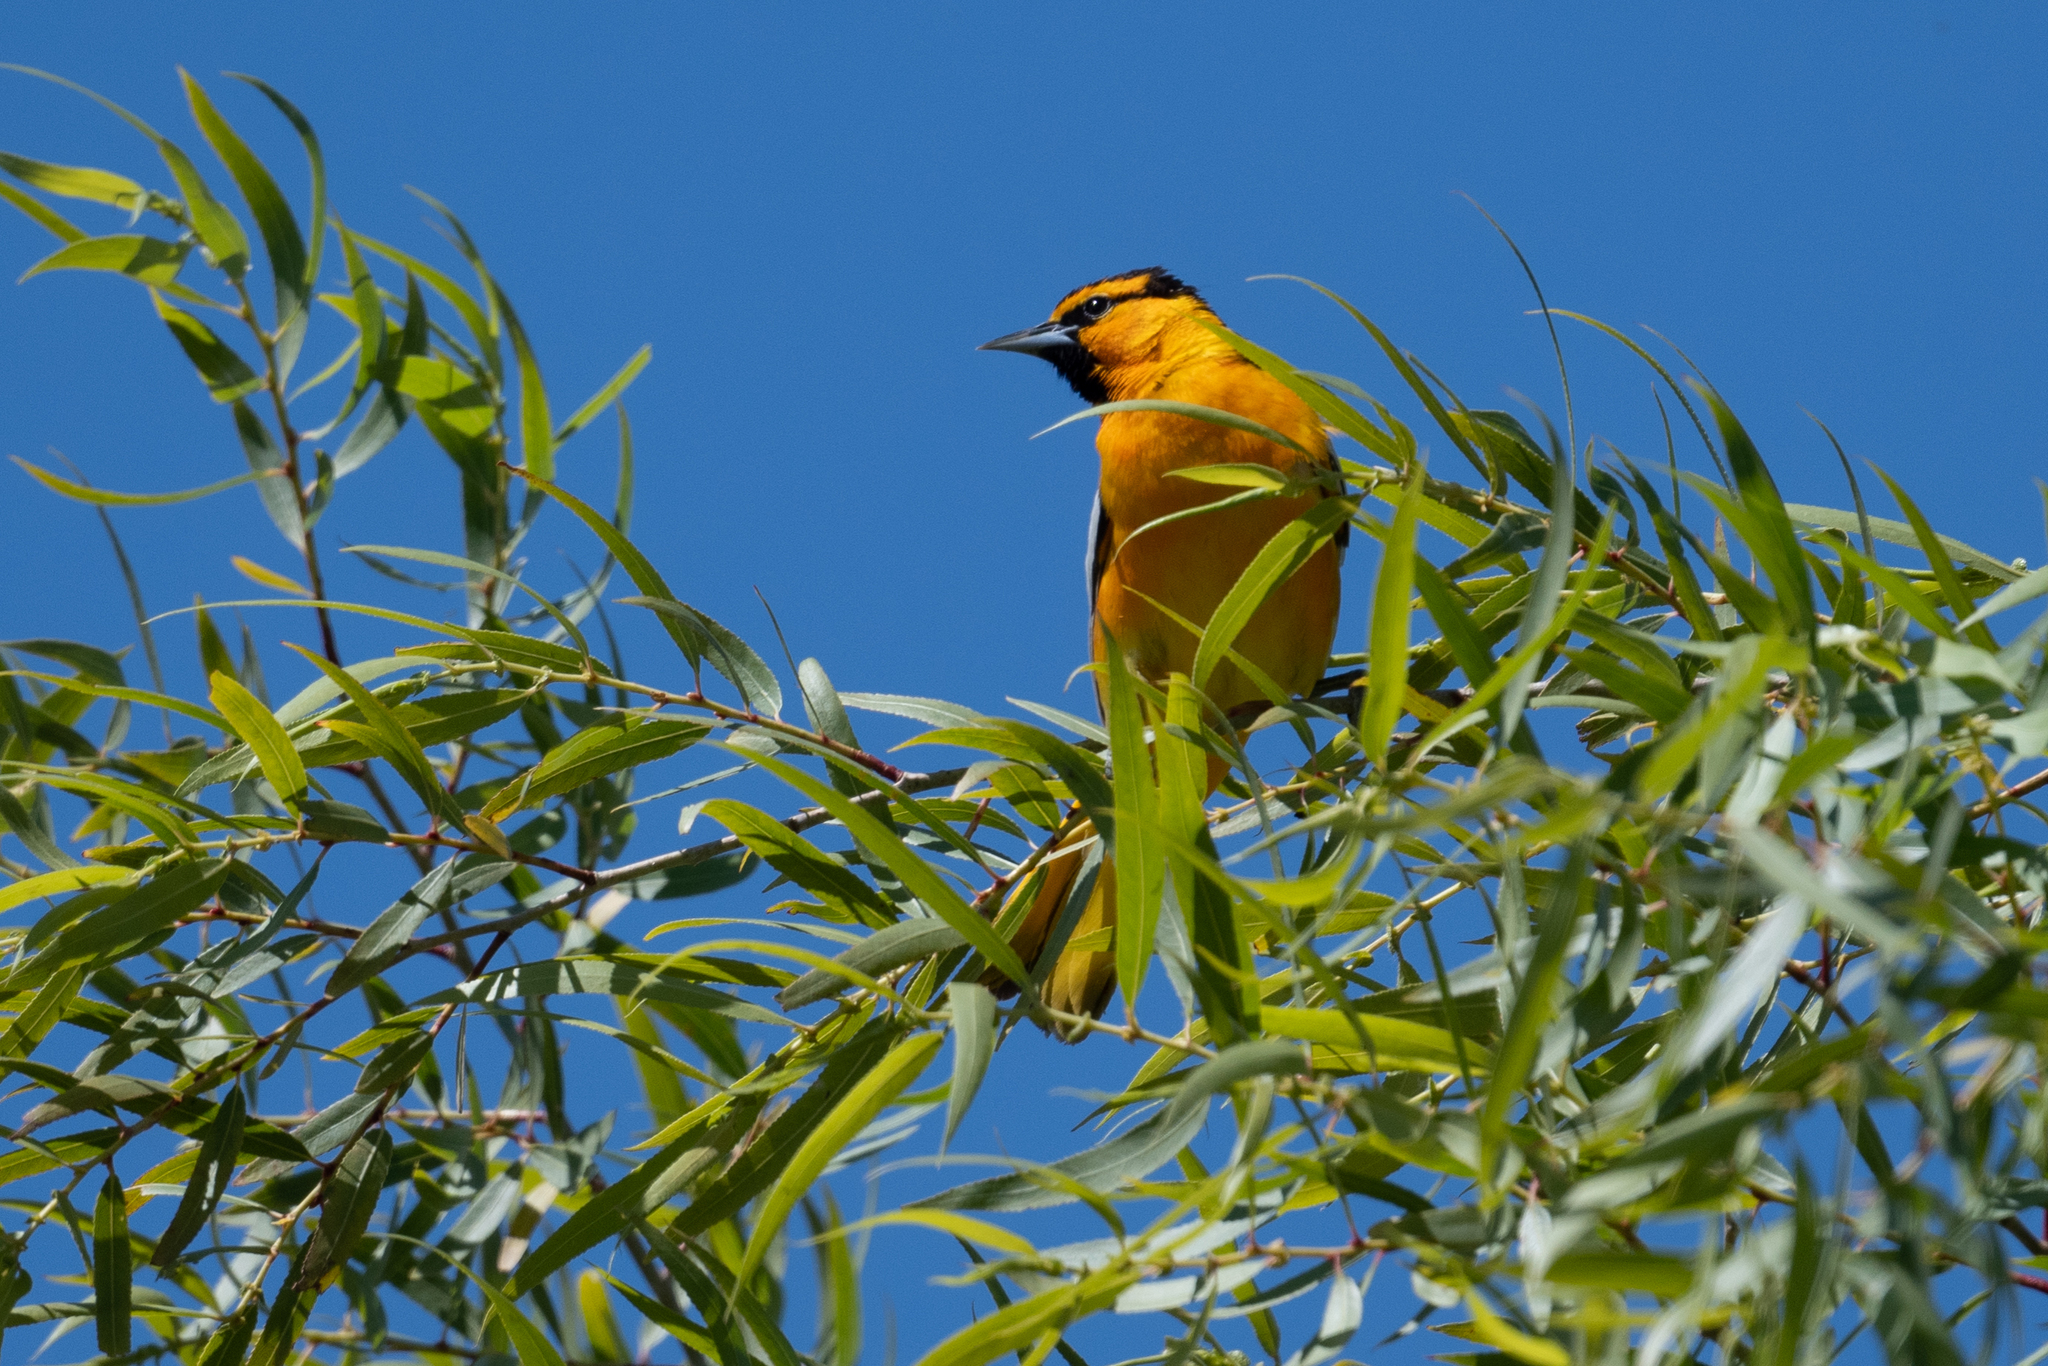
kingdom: Animalia
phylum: Chordata
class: Aves
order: Passeriformes
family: Icteridae
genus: Icterus
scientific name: Icterus bullockii
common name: Bullock's oriole
